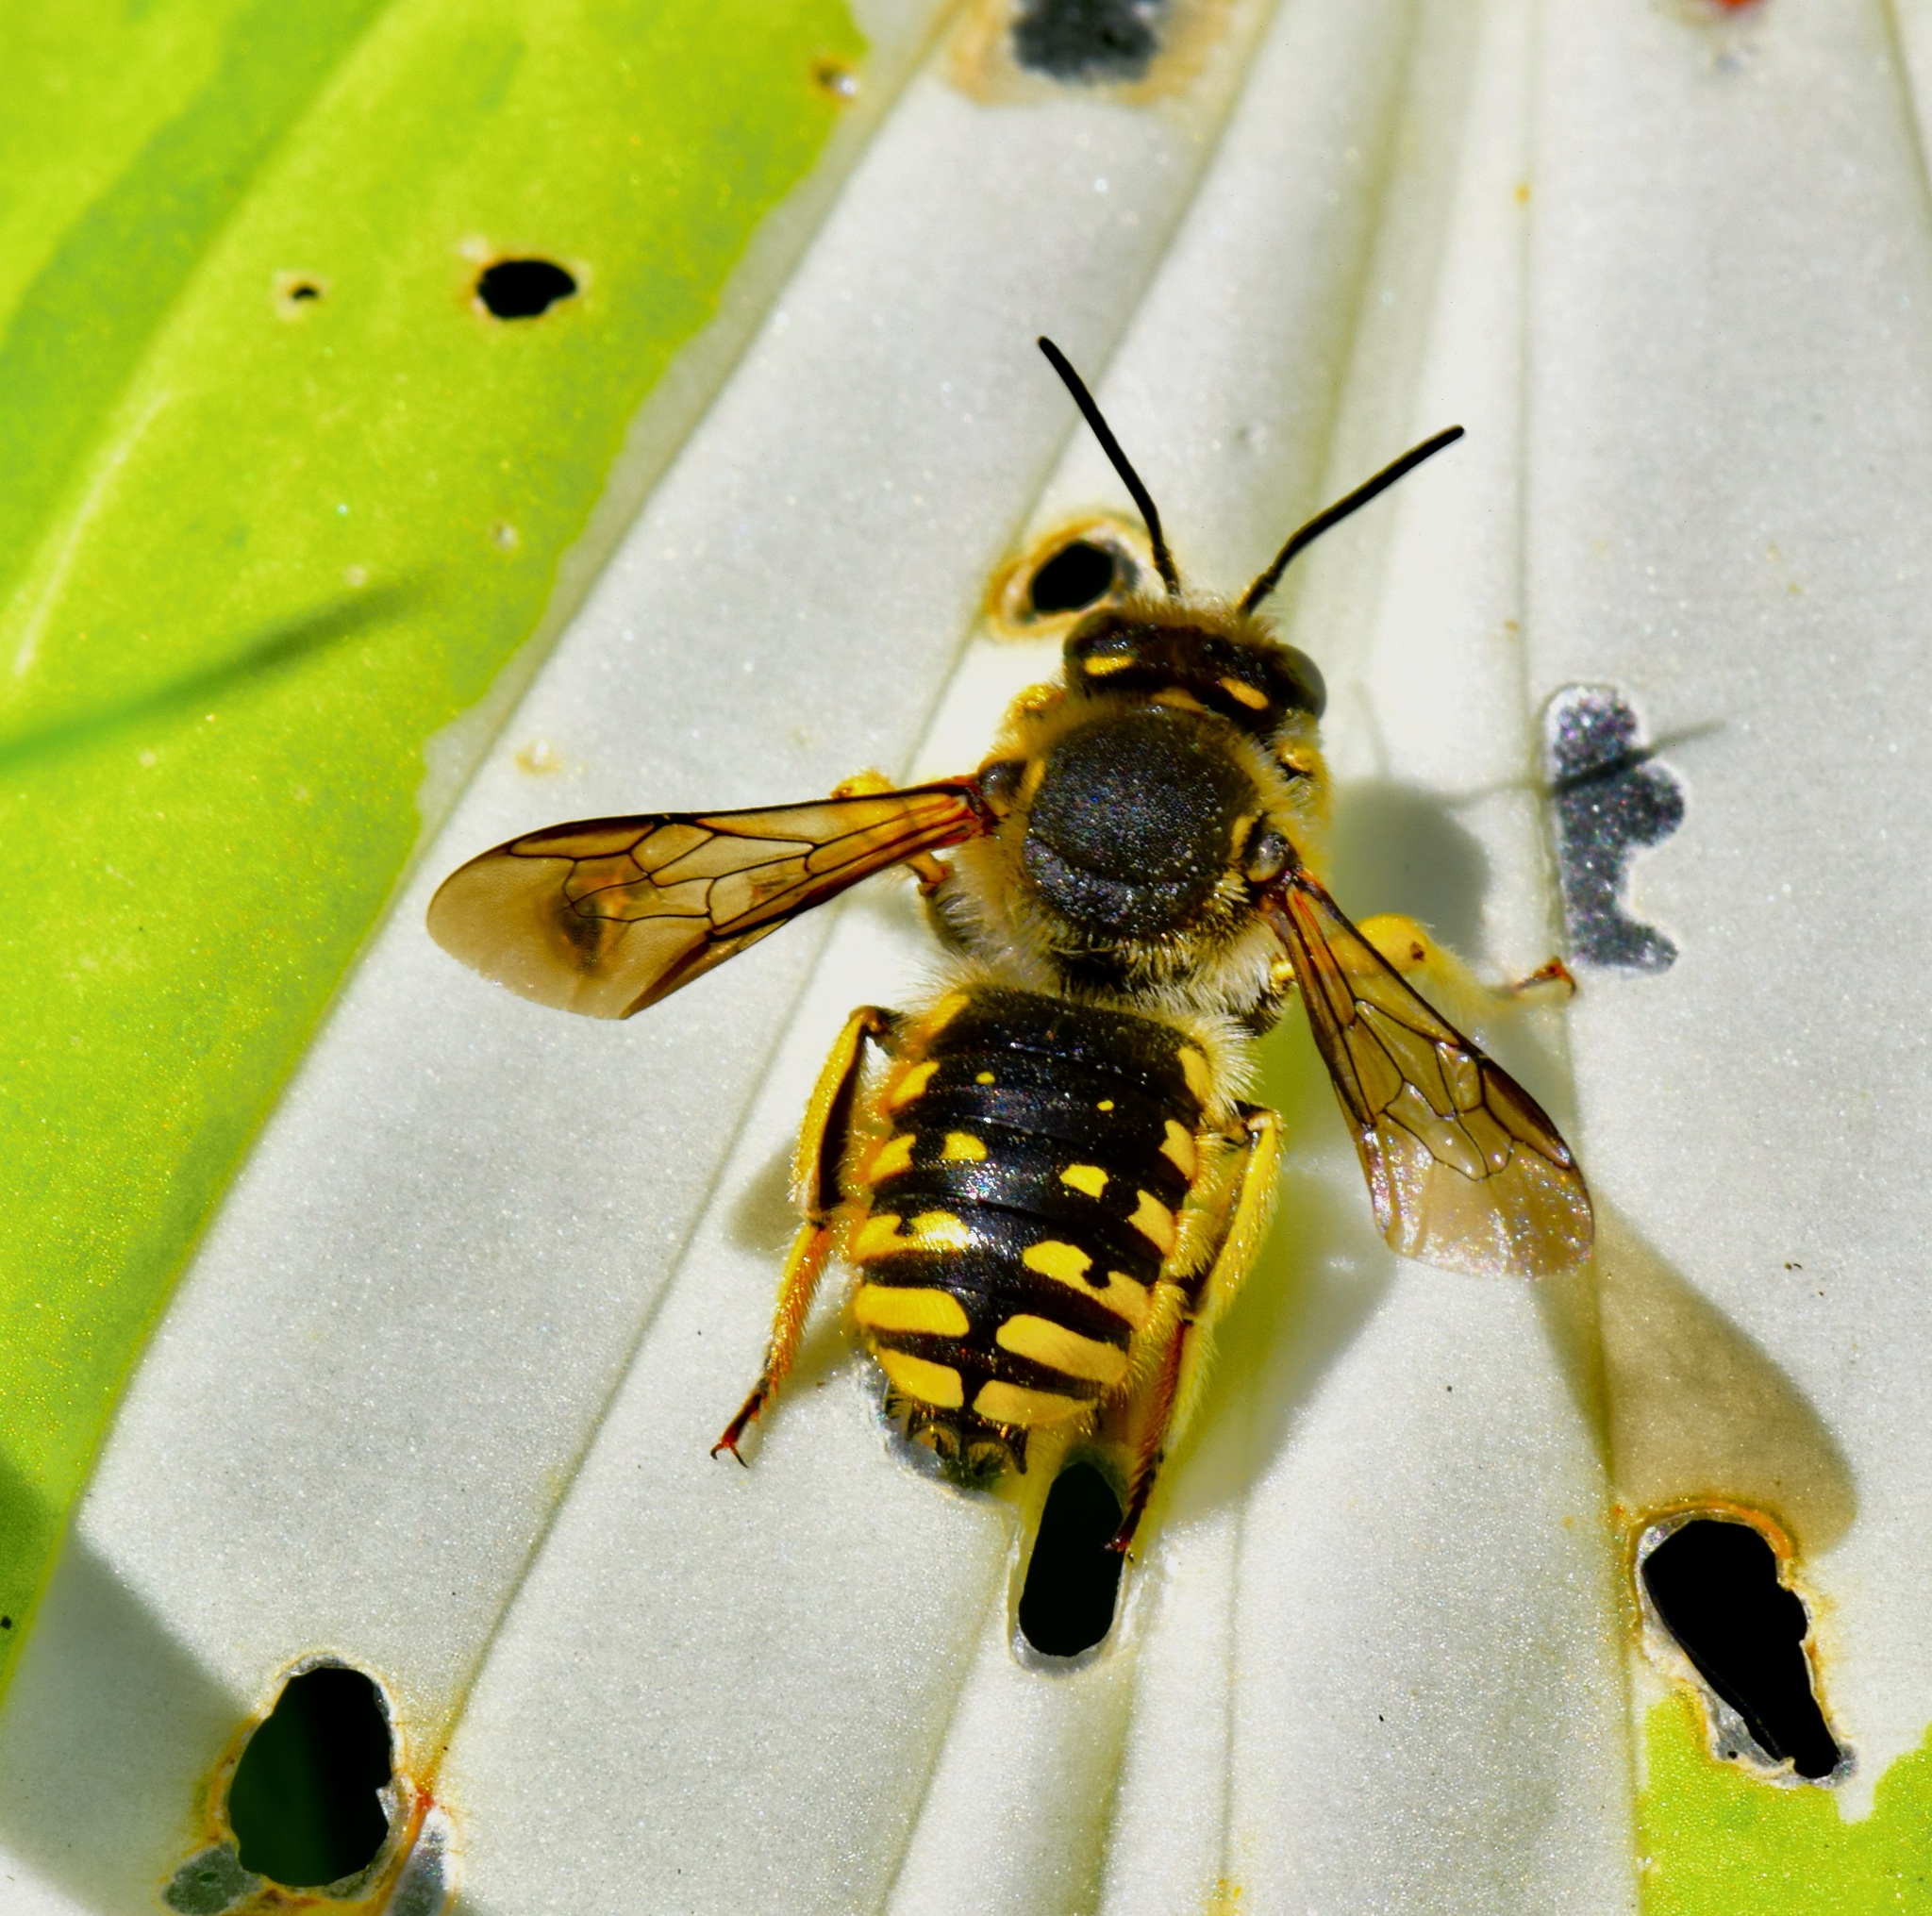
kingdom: Animalia
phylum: Arthropoda
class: Insecta
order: Hymenoptera
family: Megachilidae
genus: Anthidium
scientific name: Anthidium manicatum
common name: Wool carder bee
